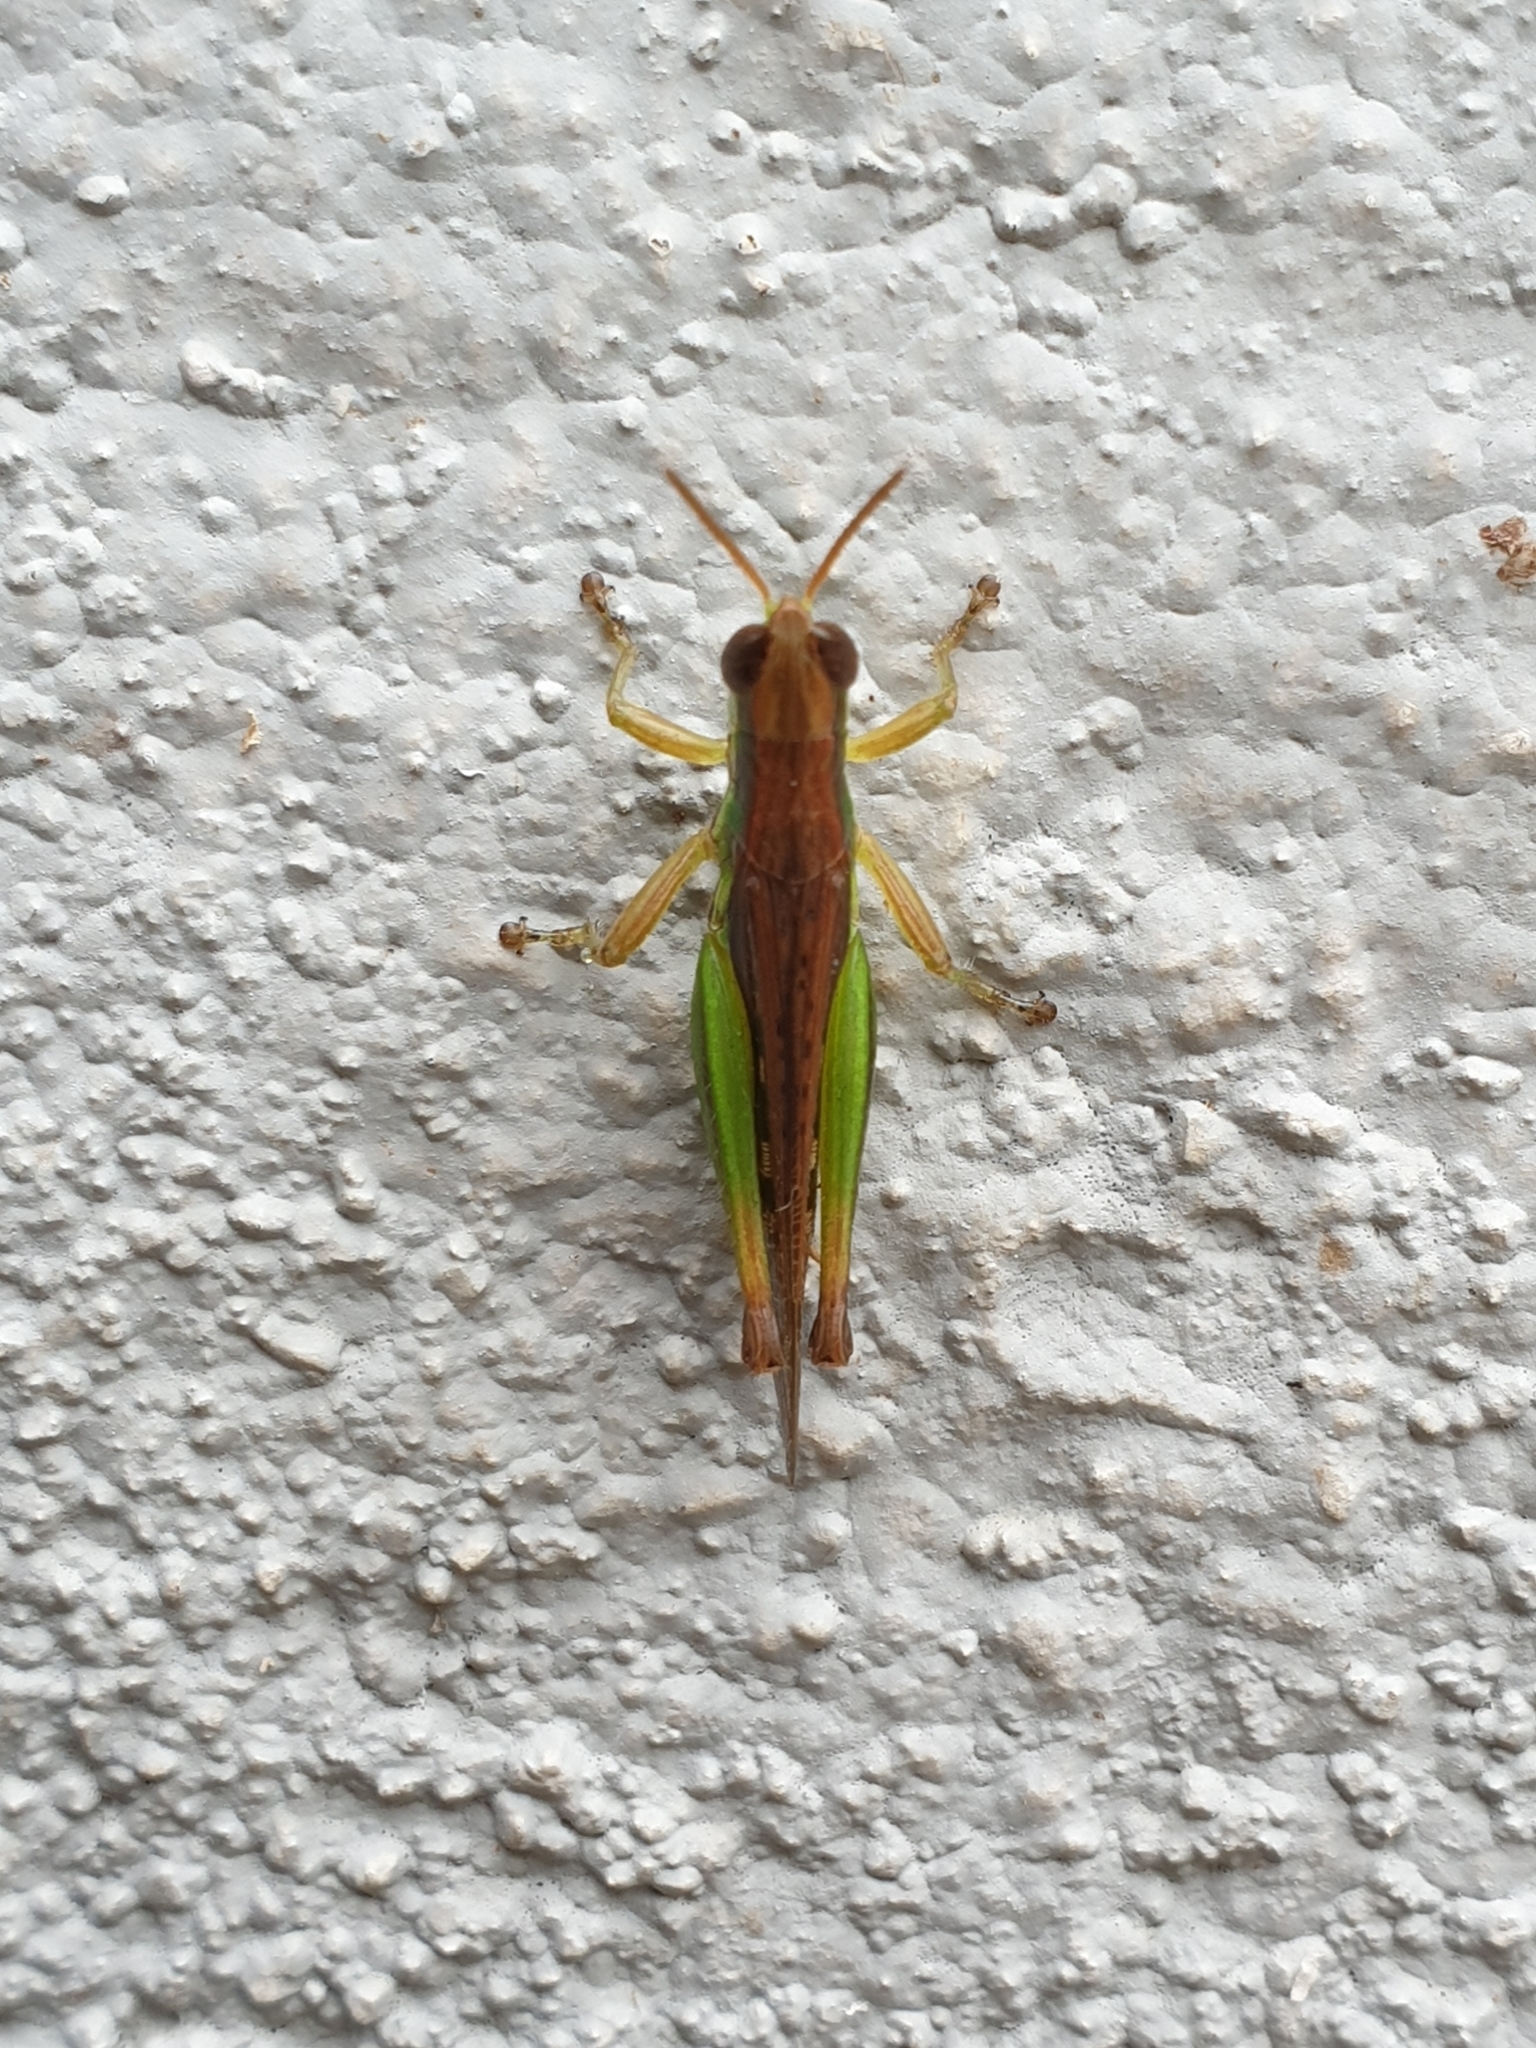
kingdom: Animalia
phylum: Arthropoda
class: Insecta
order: Orthoptera
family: Acrididae
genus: Spathosternum
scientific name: Spathosternum prasiniferum
